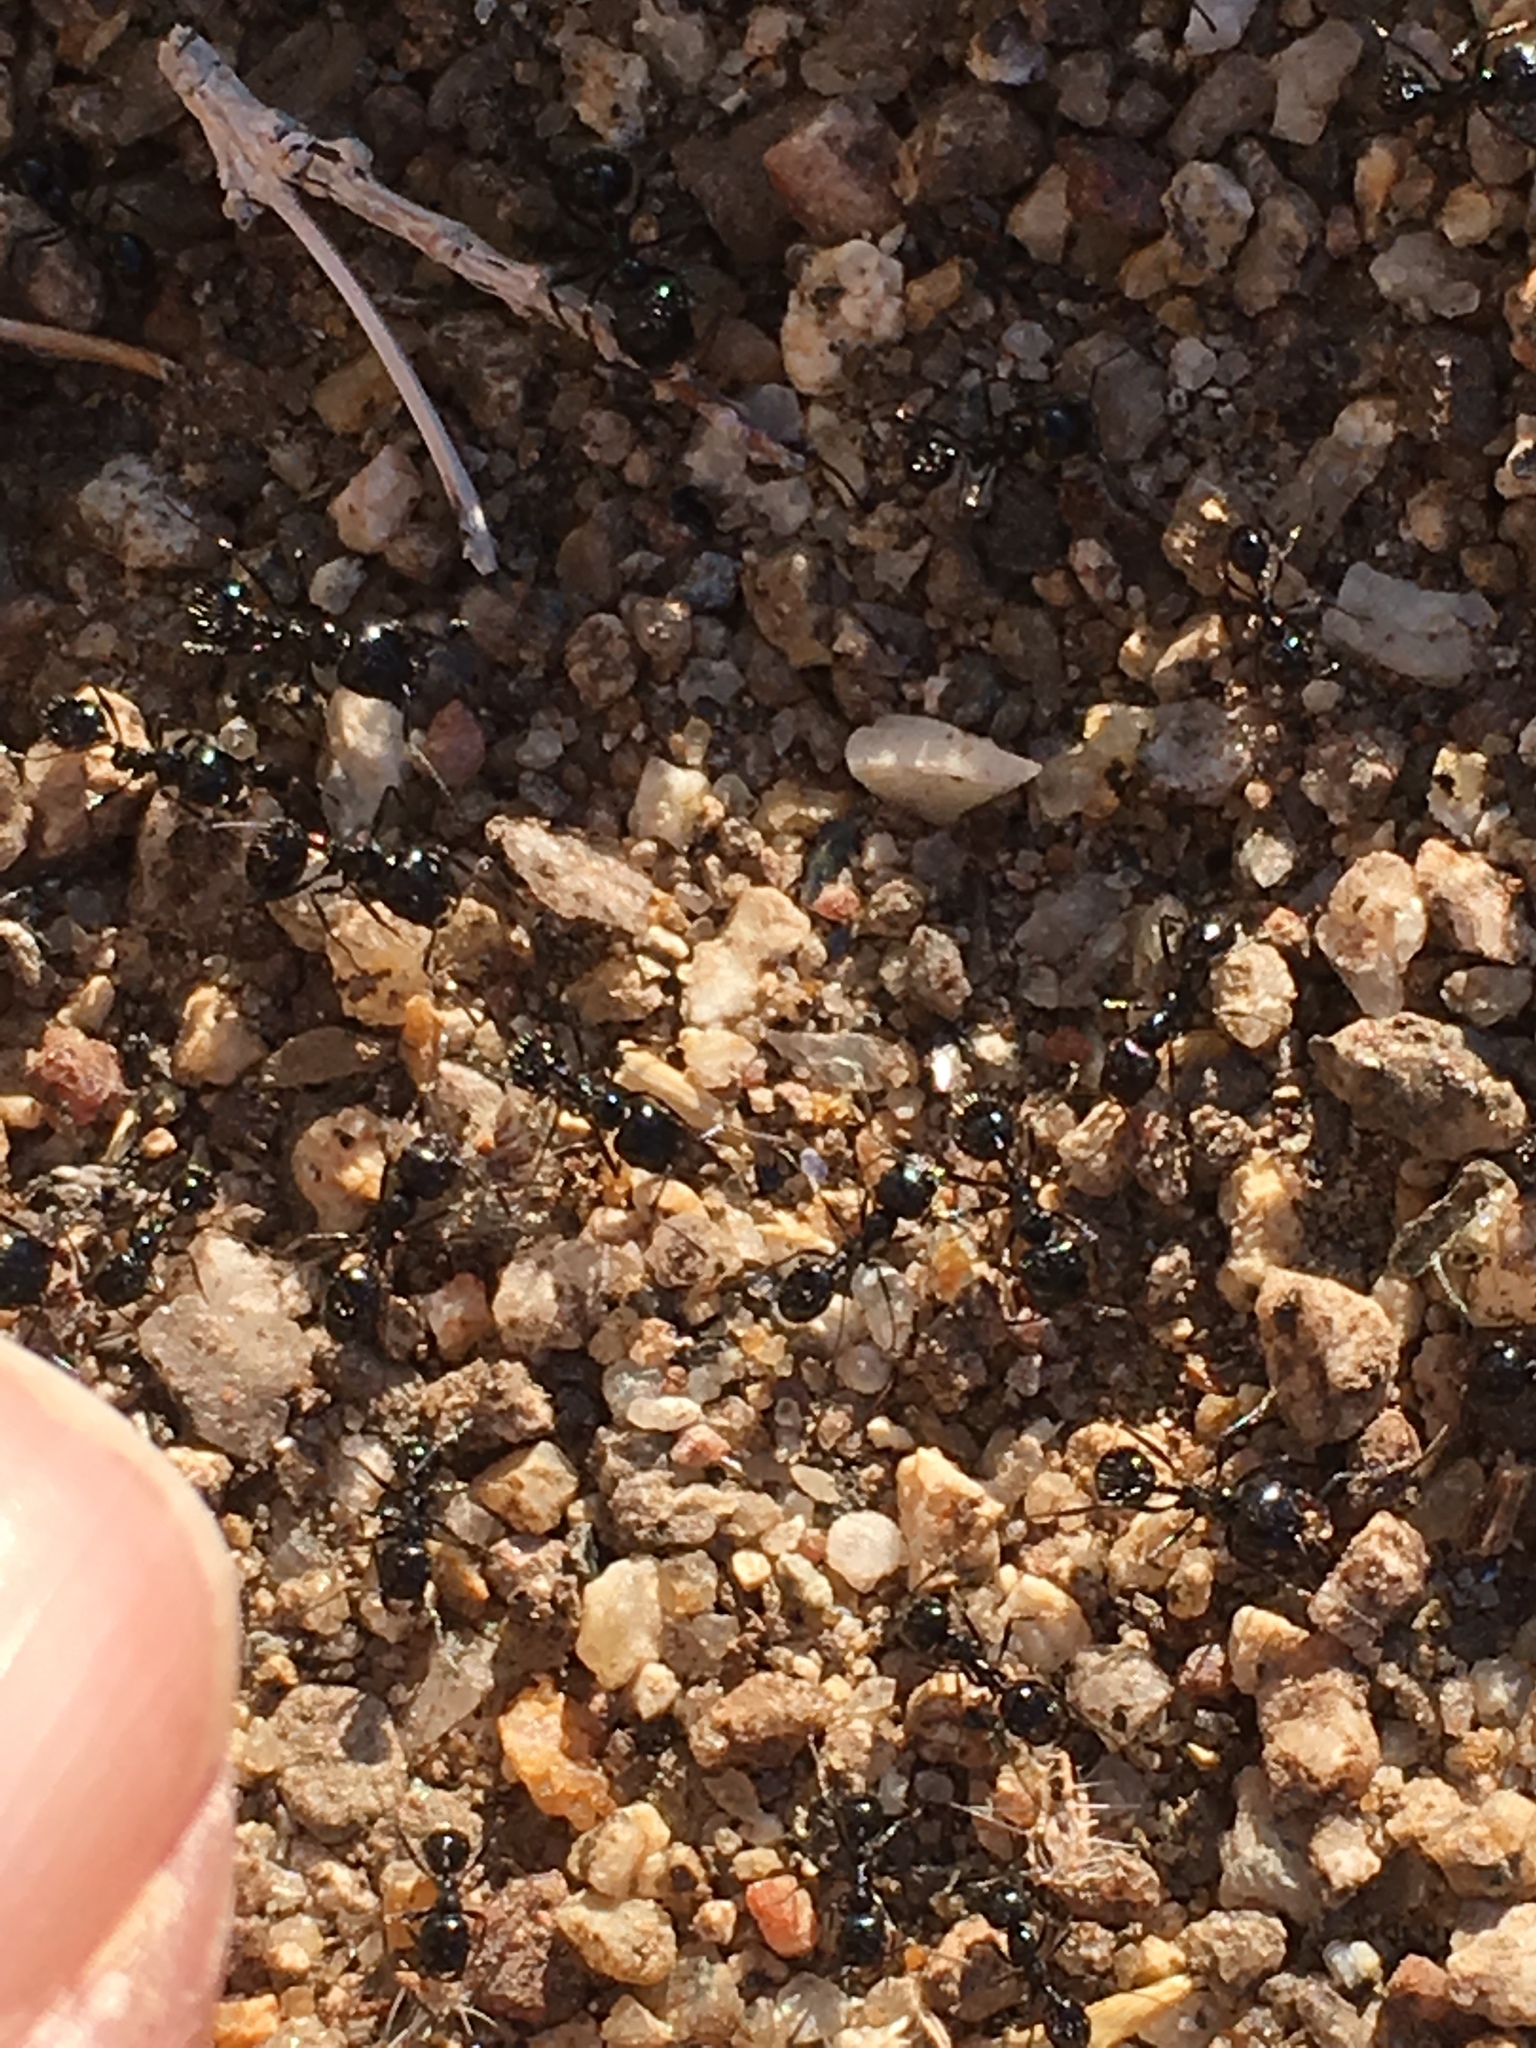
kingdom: Animalia
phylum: Arthropoda
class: Insecta
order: Hymenoptera
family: Formicidae
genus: Messor
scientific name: Messor pergandei
